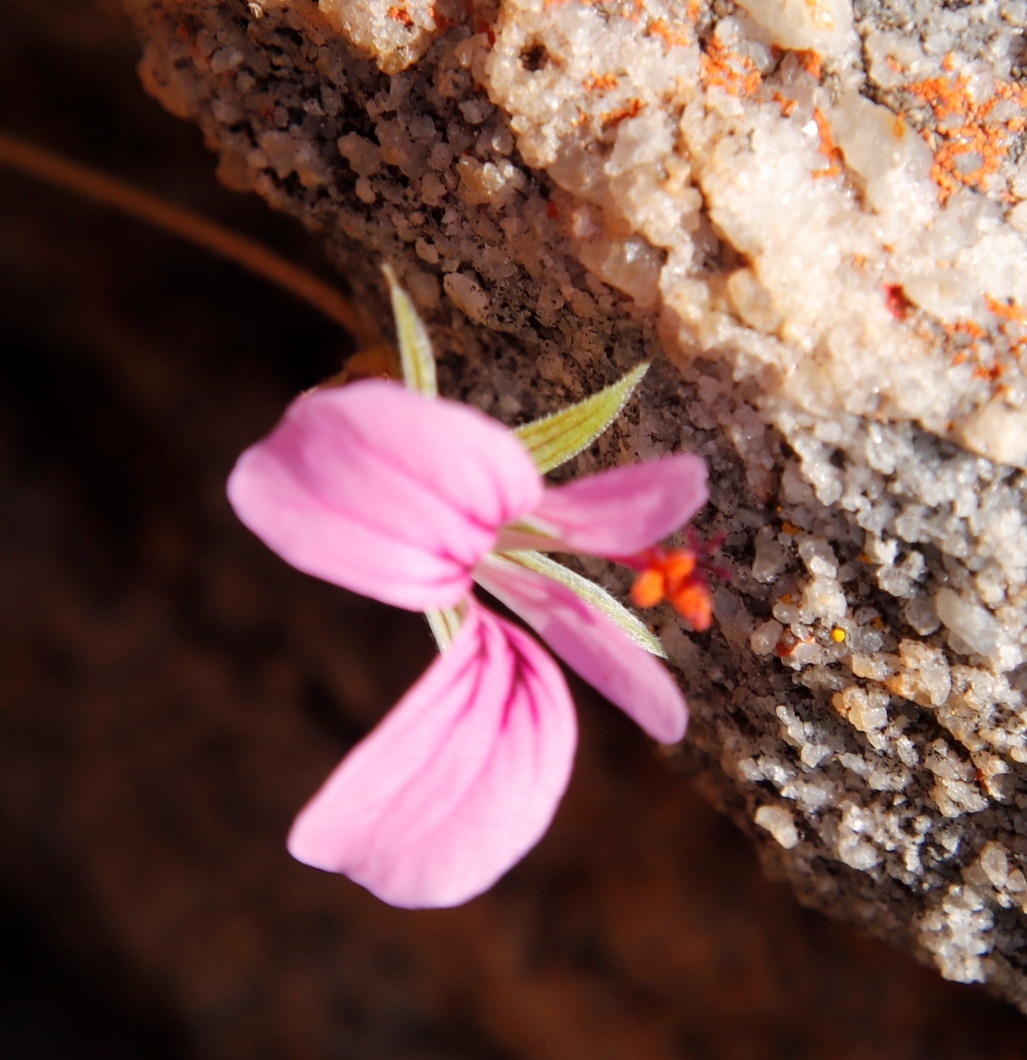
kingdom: Plantae
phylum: Tracheophyta
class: Magnoliopsida
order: Geraniales
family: Geraniaceae
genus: Pelargonium
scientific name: Pelargonium myrrhifolium
